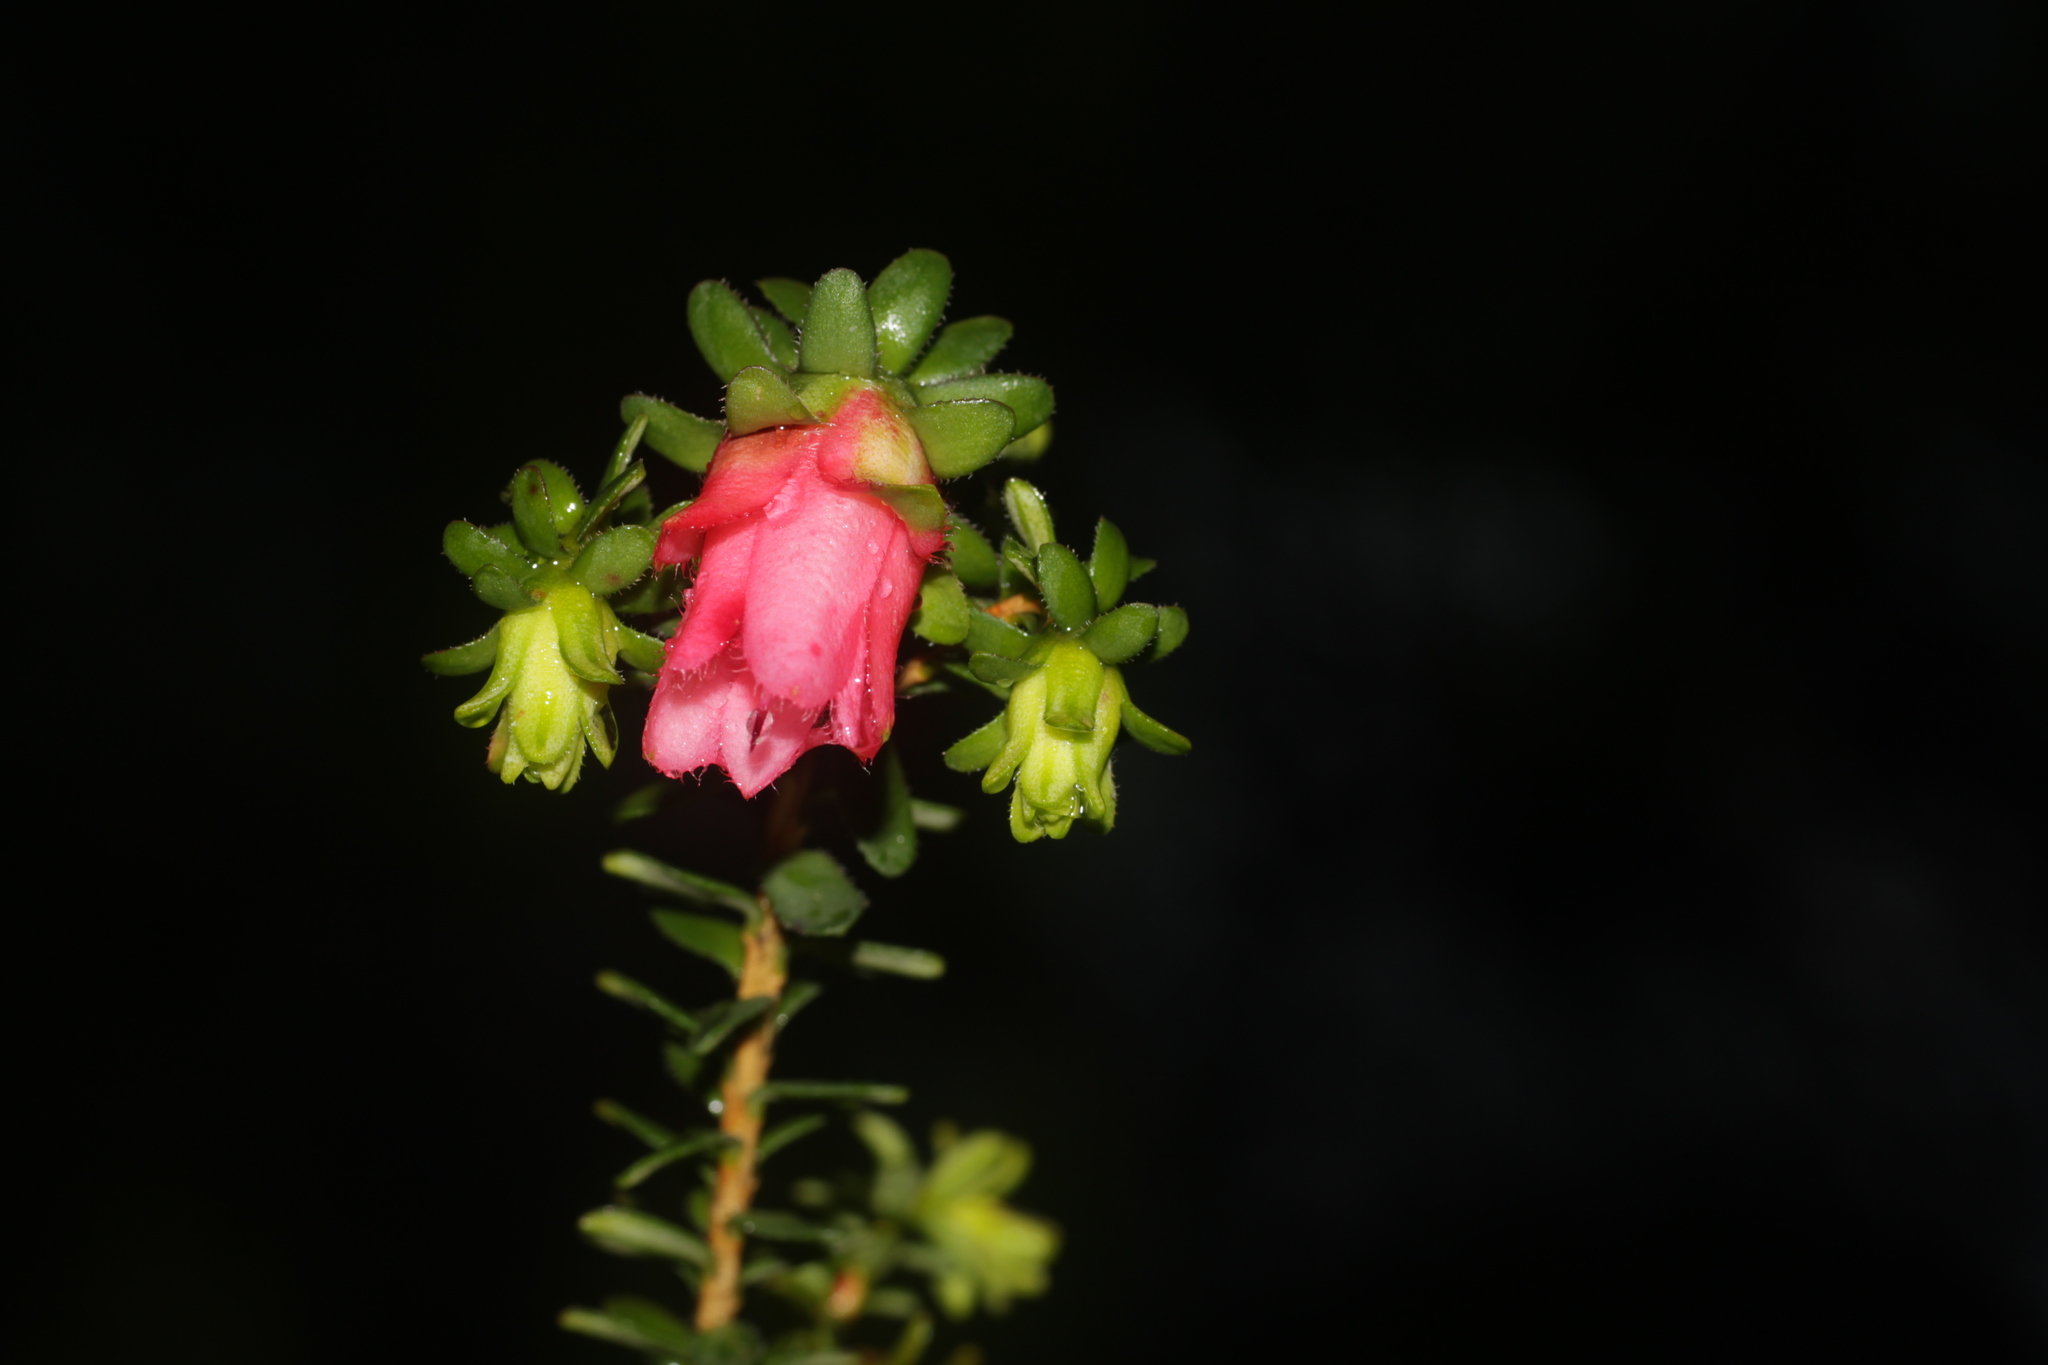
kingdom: Plantae
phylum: Tracheophyta
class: Magnoliopsida
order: Myrtales
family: Myrtaceae
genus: Darwinia
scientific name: Darwinia squarrosa
